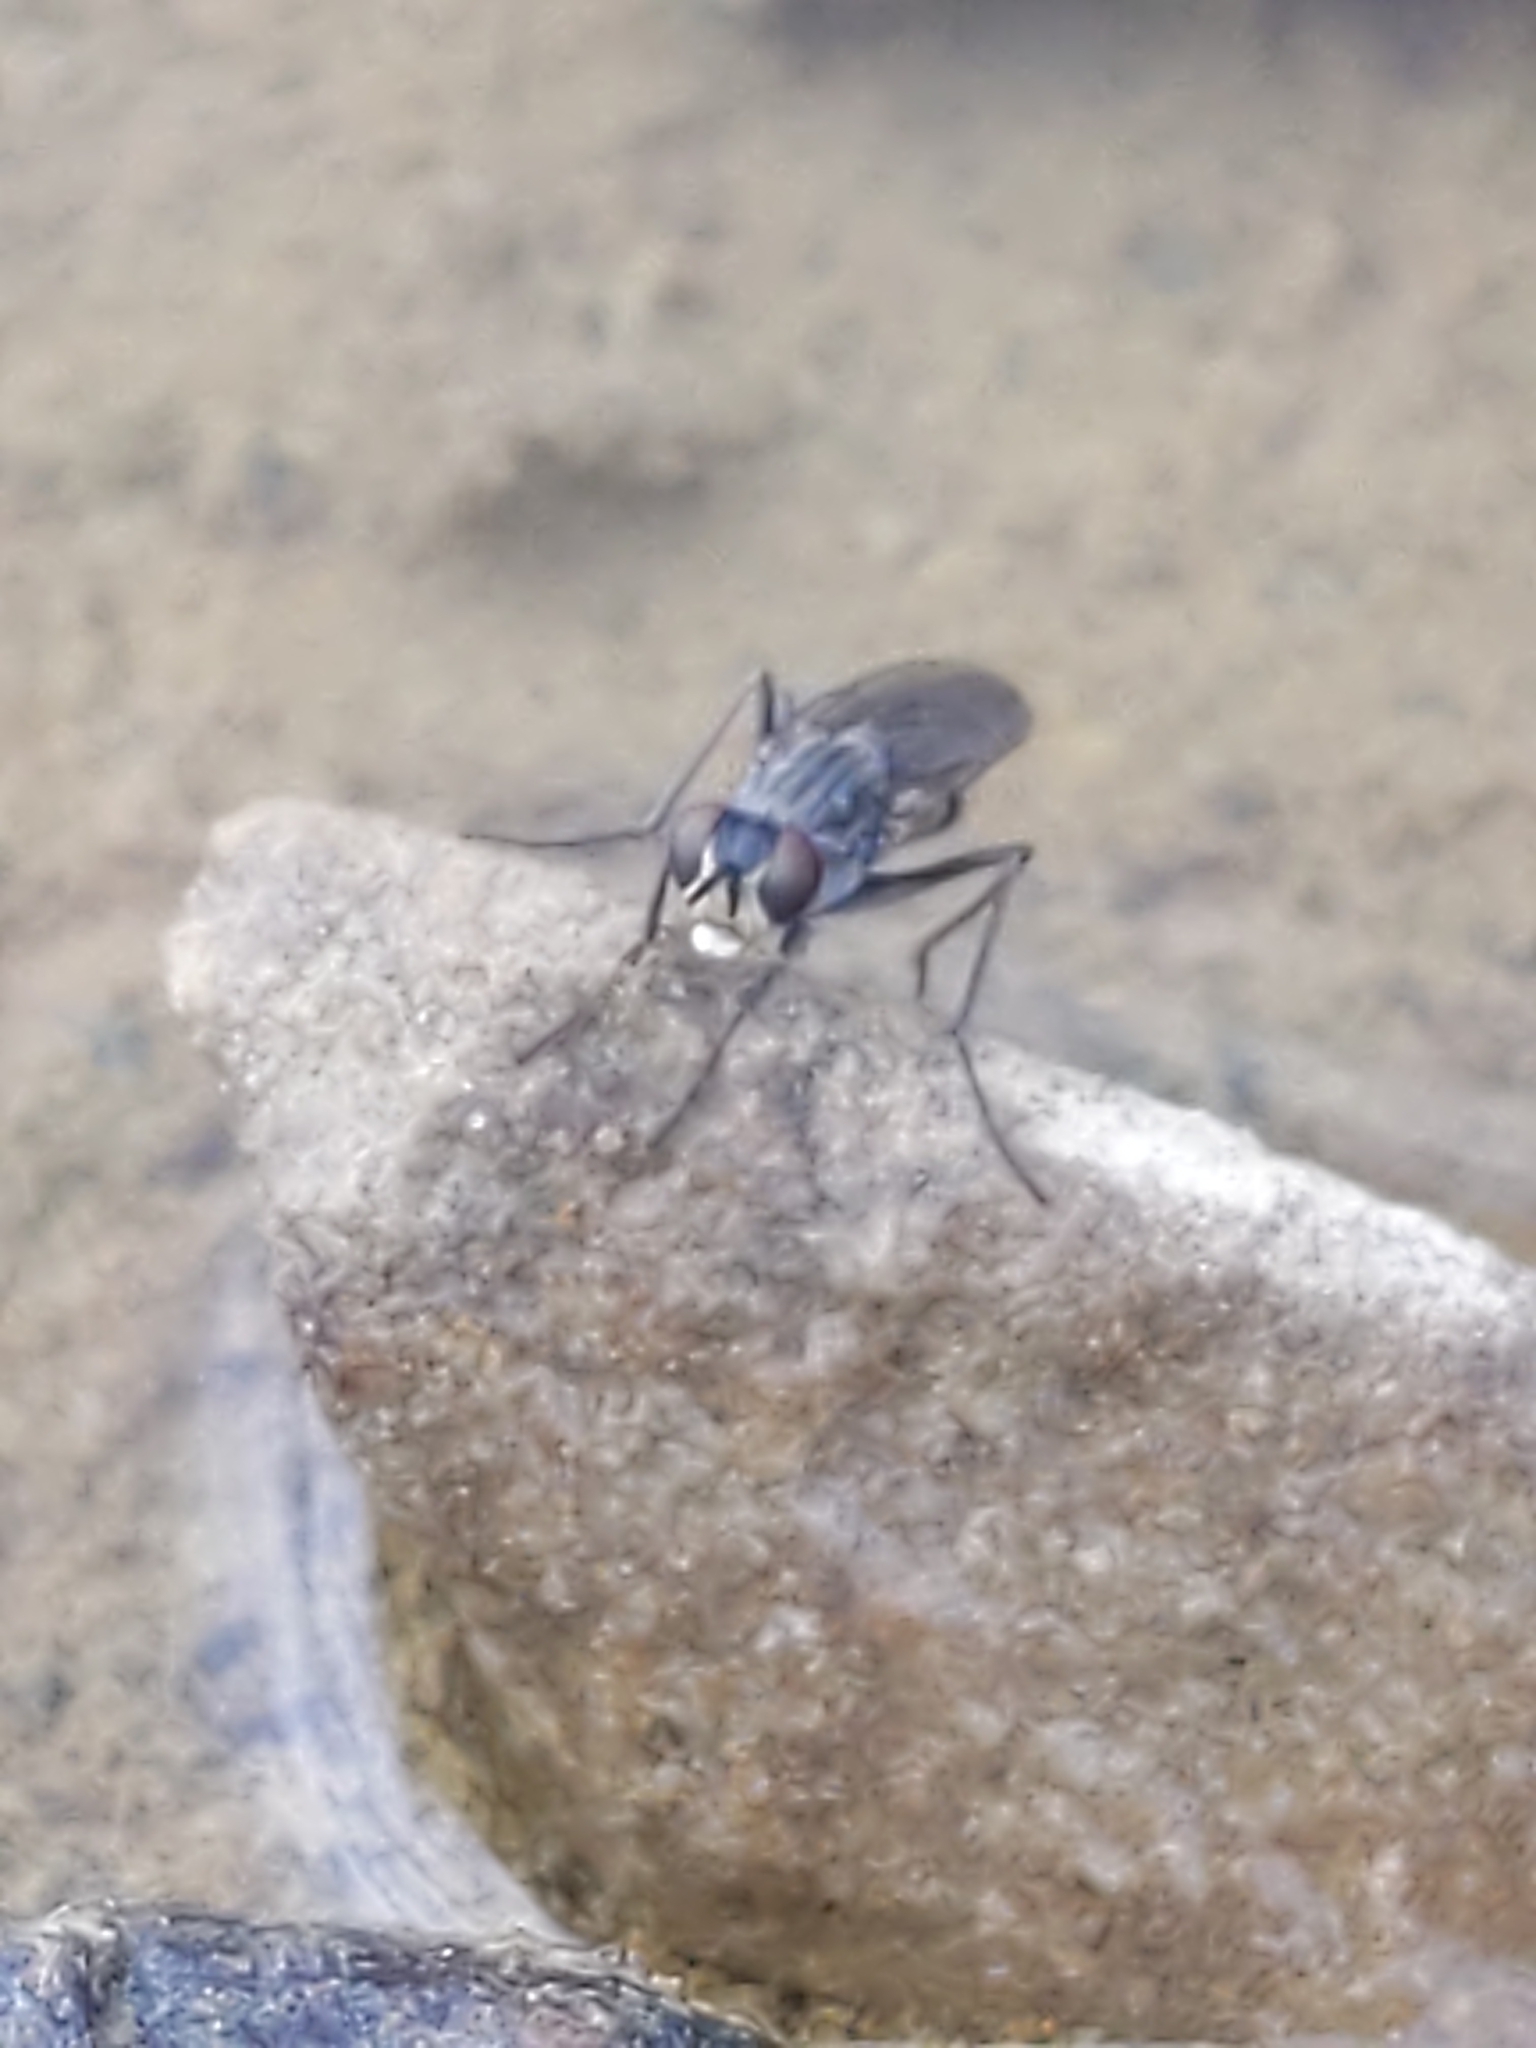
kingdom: Animalia
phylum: Arthropoda
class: Insecta
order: Diptera
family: Muscidae
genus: Lispe
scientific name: Lispe
